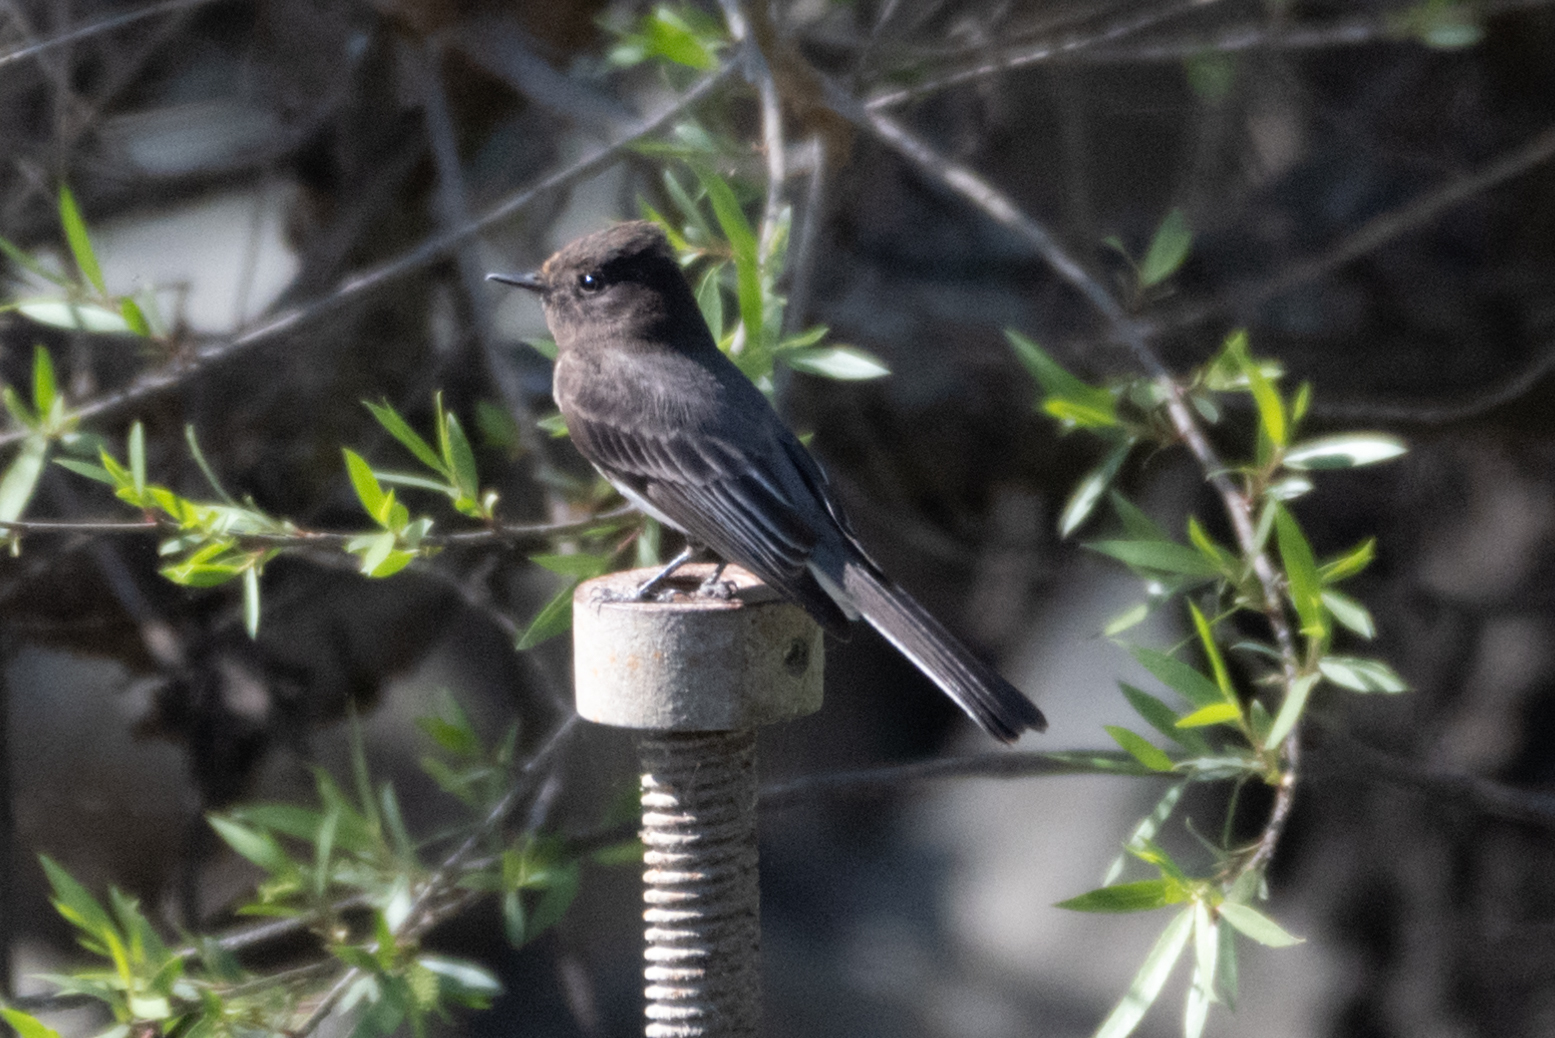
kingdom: Animalia
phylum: Chordata
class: Aves
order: Passeriformes
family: Tyrannidae
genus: Sayornis
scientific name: Sayornis nigricans
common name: Black phoebe
